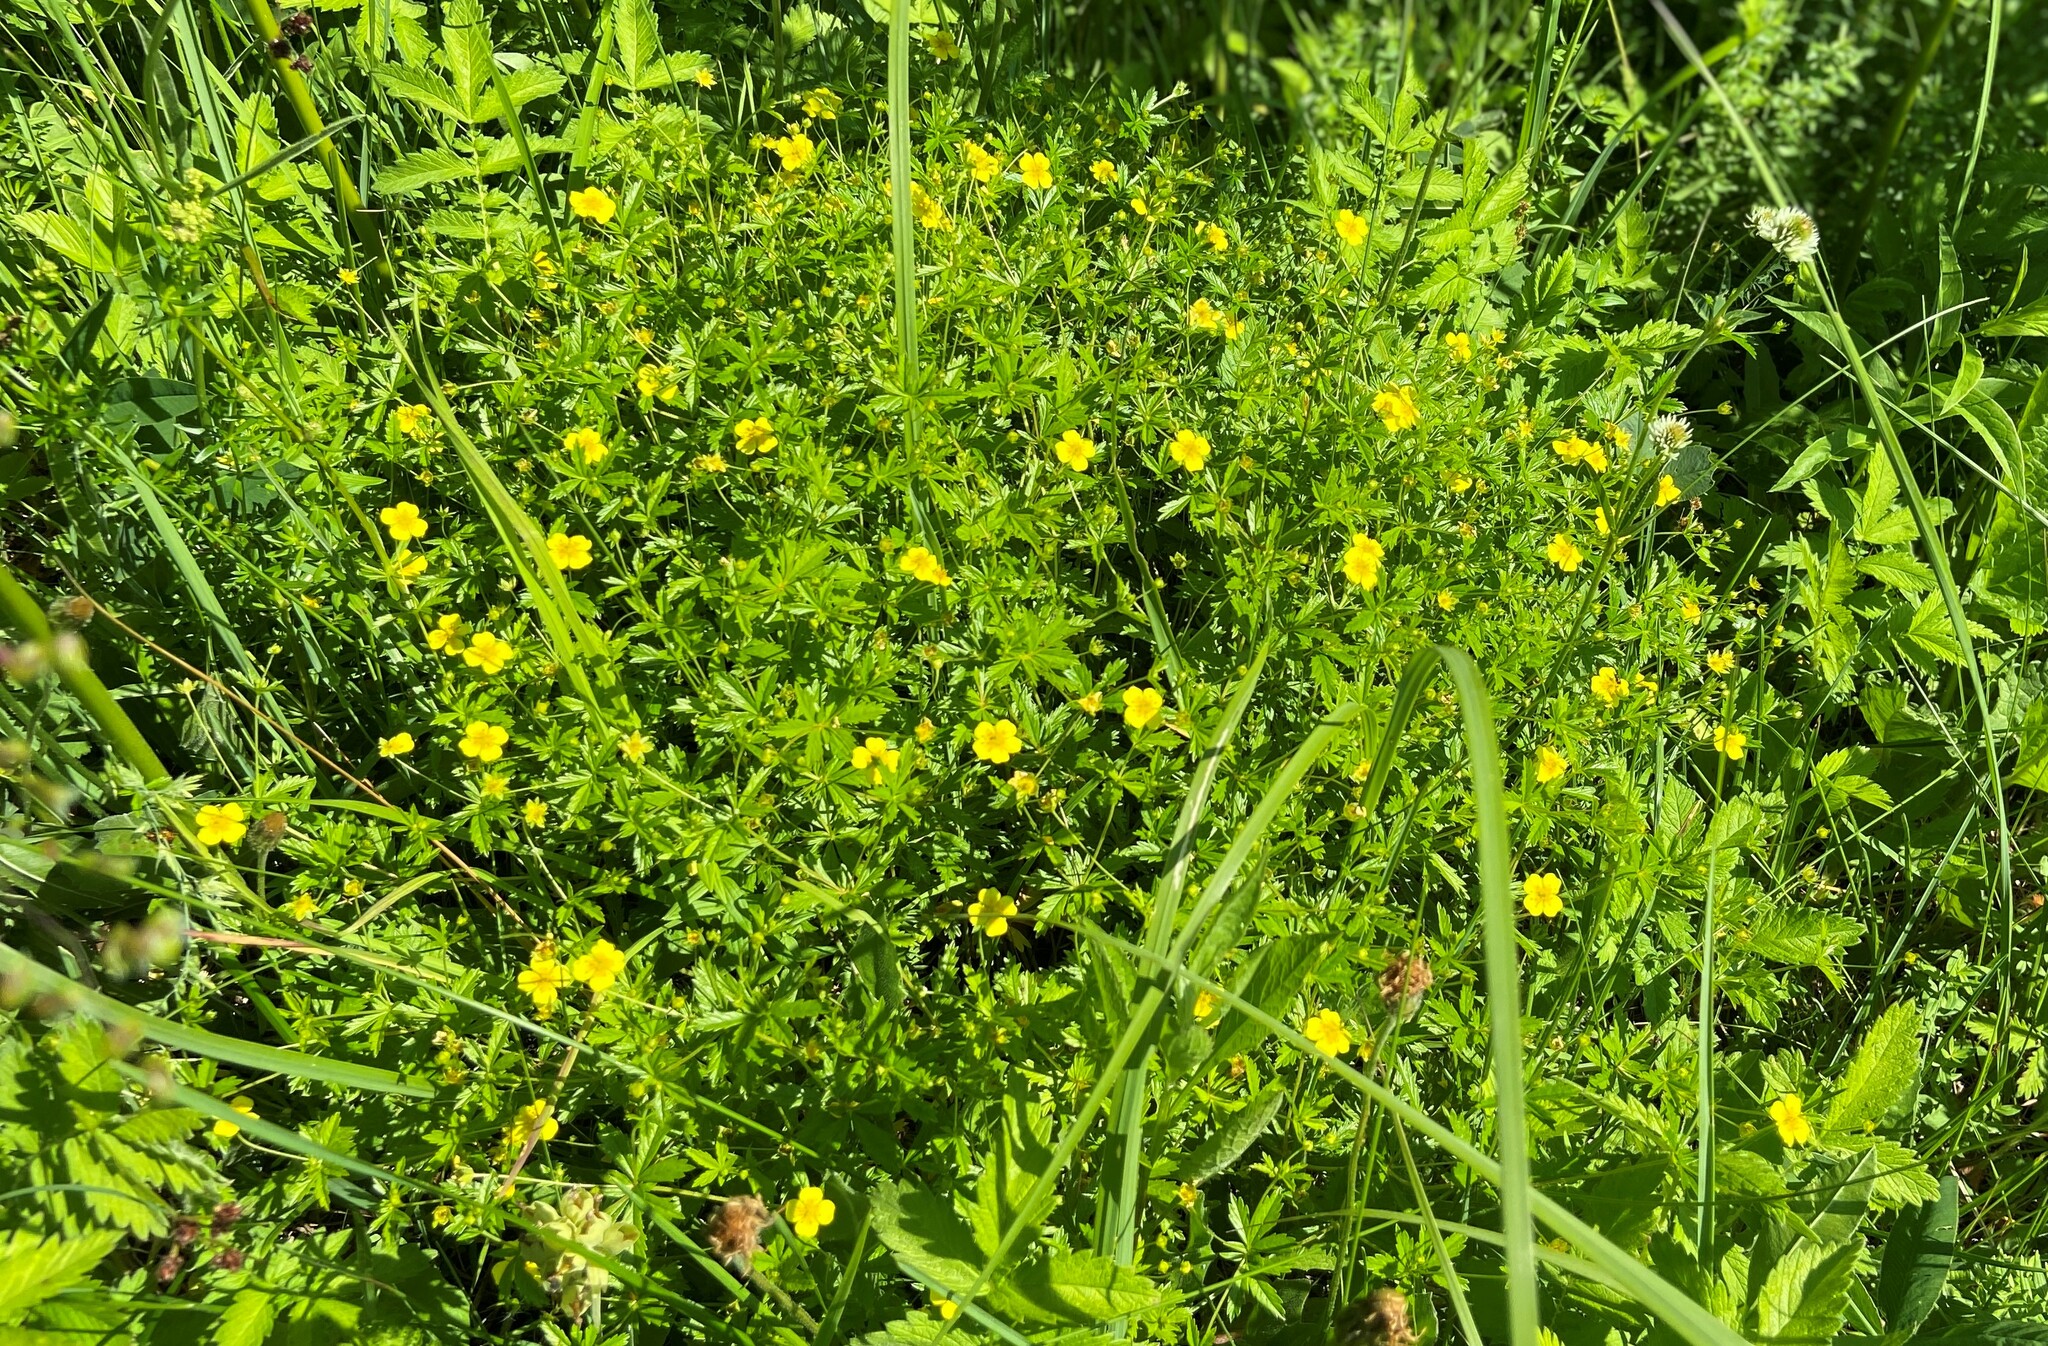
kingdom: Plantae
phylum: Tracheophyta
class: Magnoliopsida
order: Rosales
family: Rosaceae
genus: Potentilla
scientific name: Potentilla erecta
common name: Tormentil
